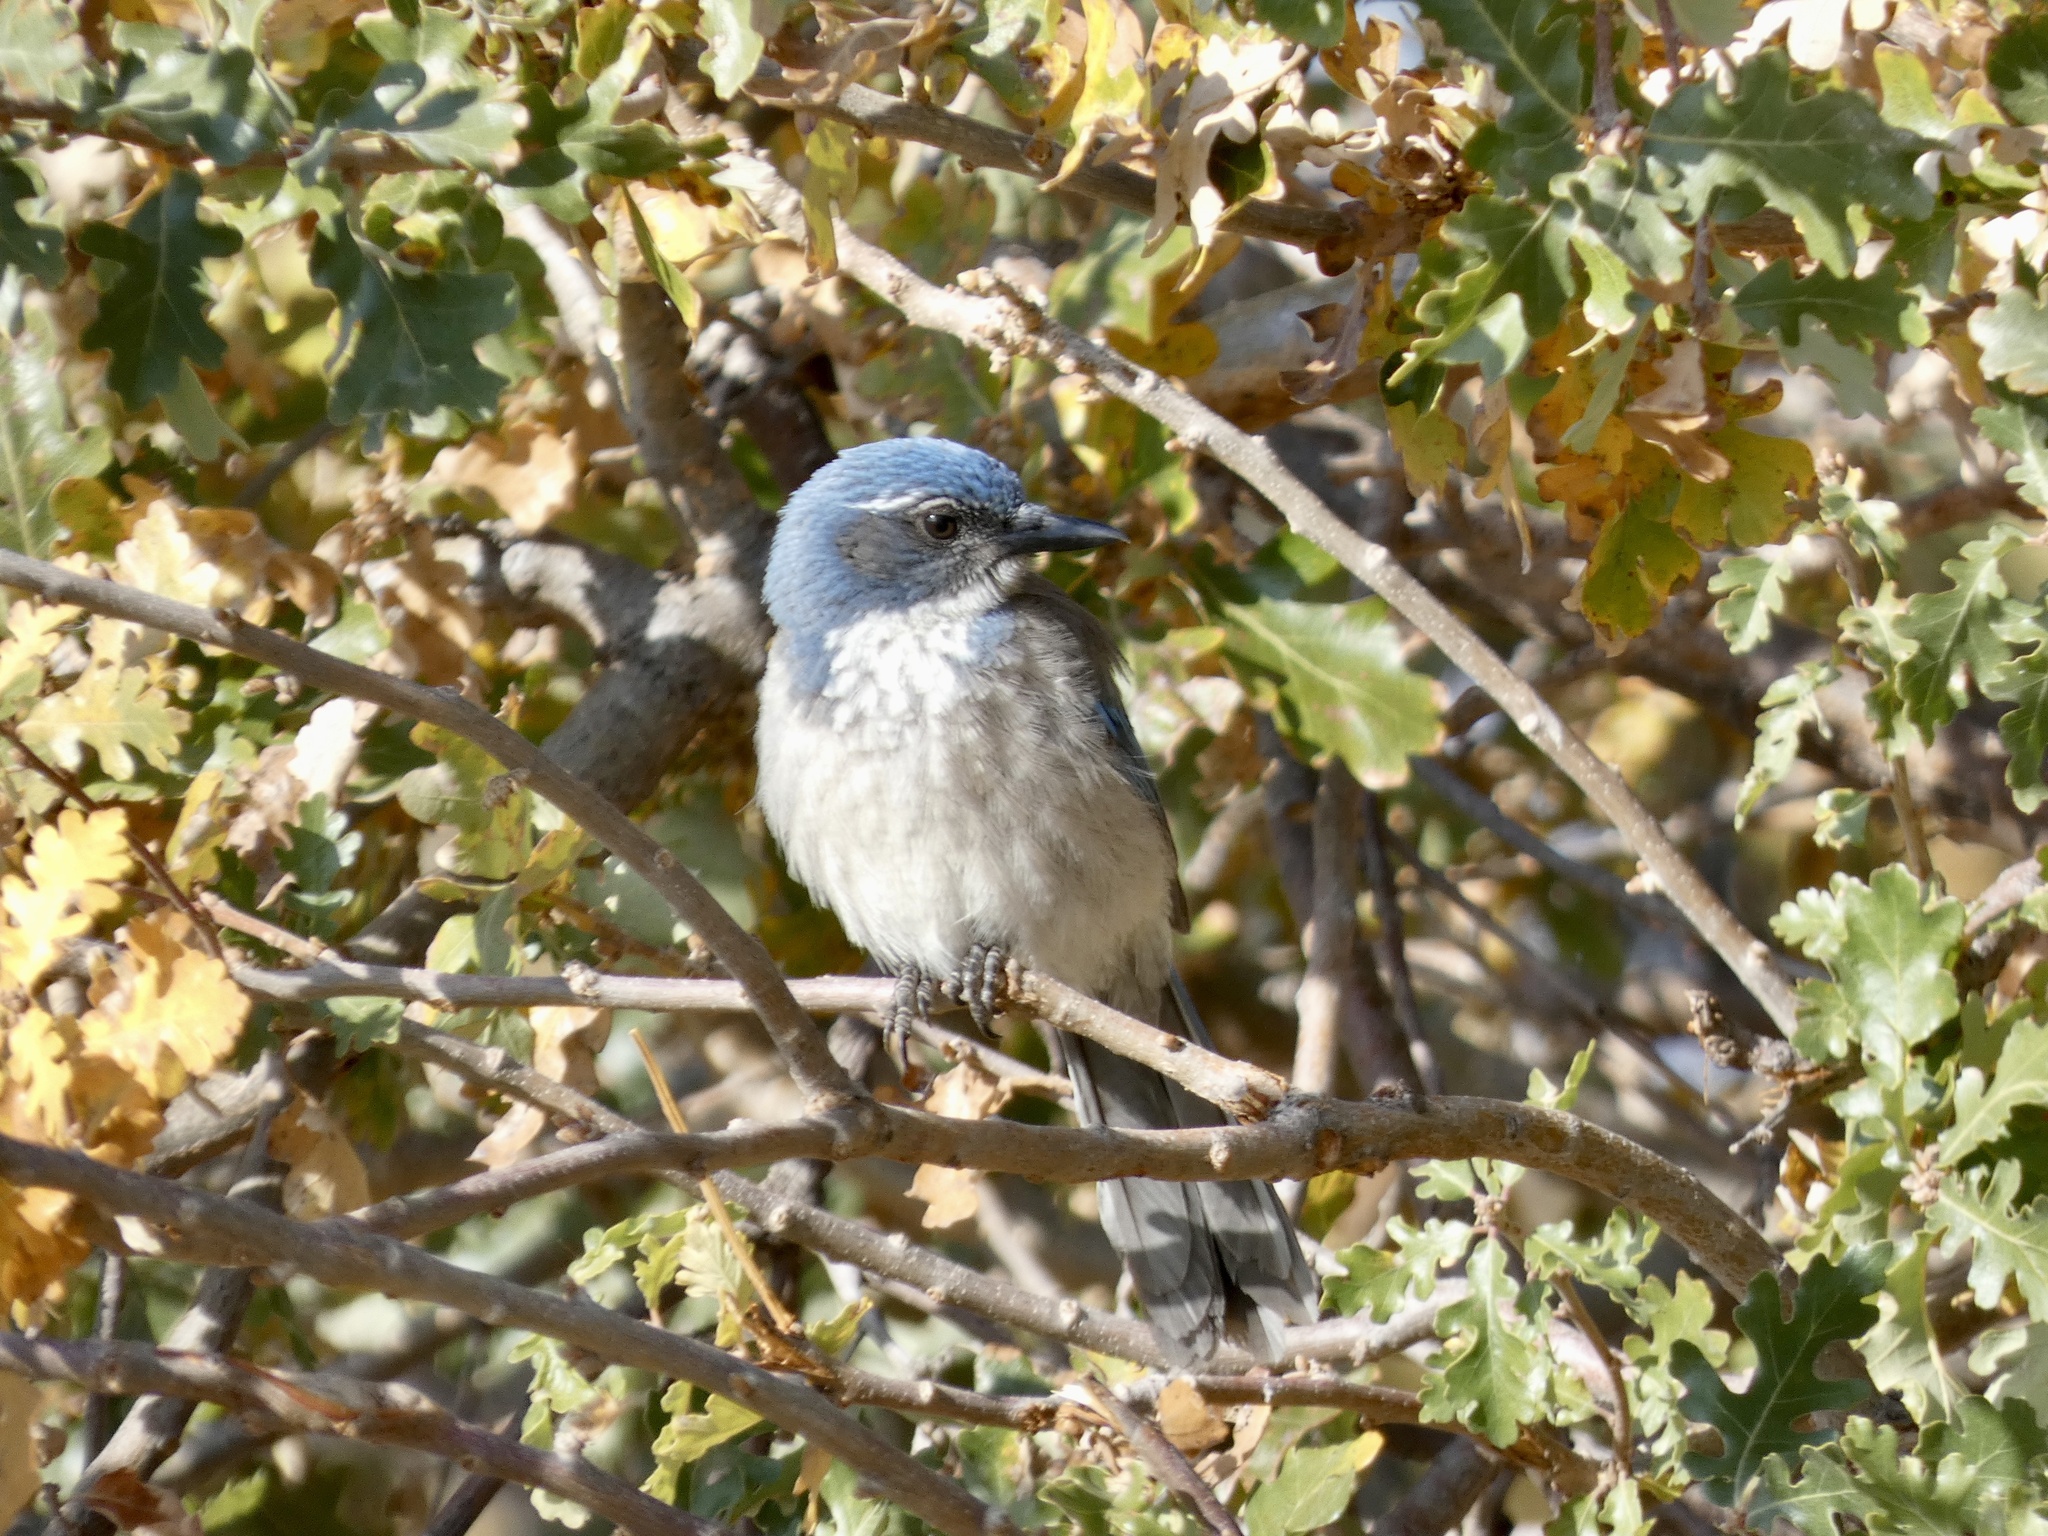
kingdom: Animalia
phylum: Chordata
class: Aves
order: Passeriformes
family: Corvidae
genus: Aphelocoma
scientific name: Aphelocoma californica
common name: California scrub-jay
